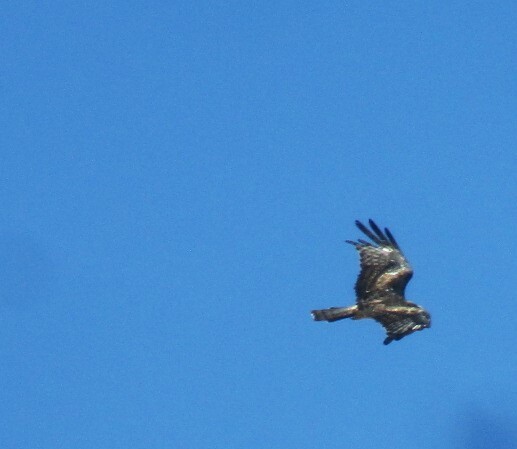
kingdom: Animalia
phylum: Chordata
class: Aves
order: Accipitriformes
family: Accipitridae
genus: Lophoictinia
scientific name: Lophoictinia isura
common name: Square-tailed kite
